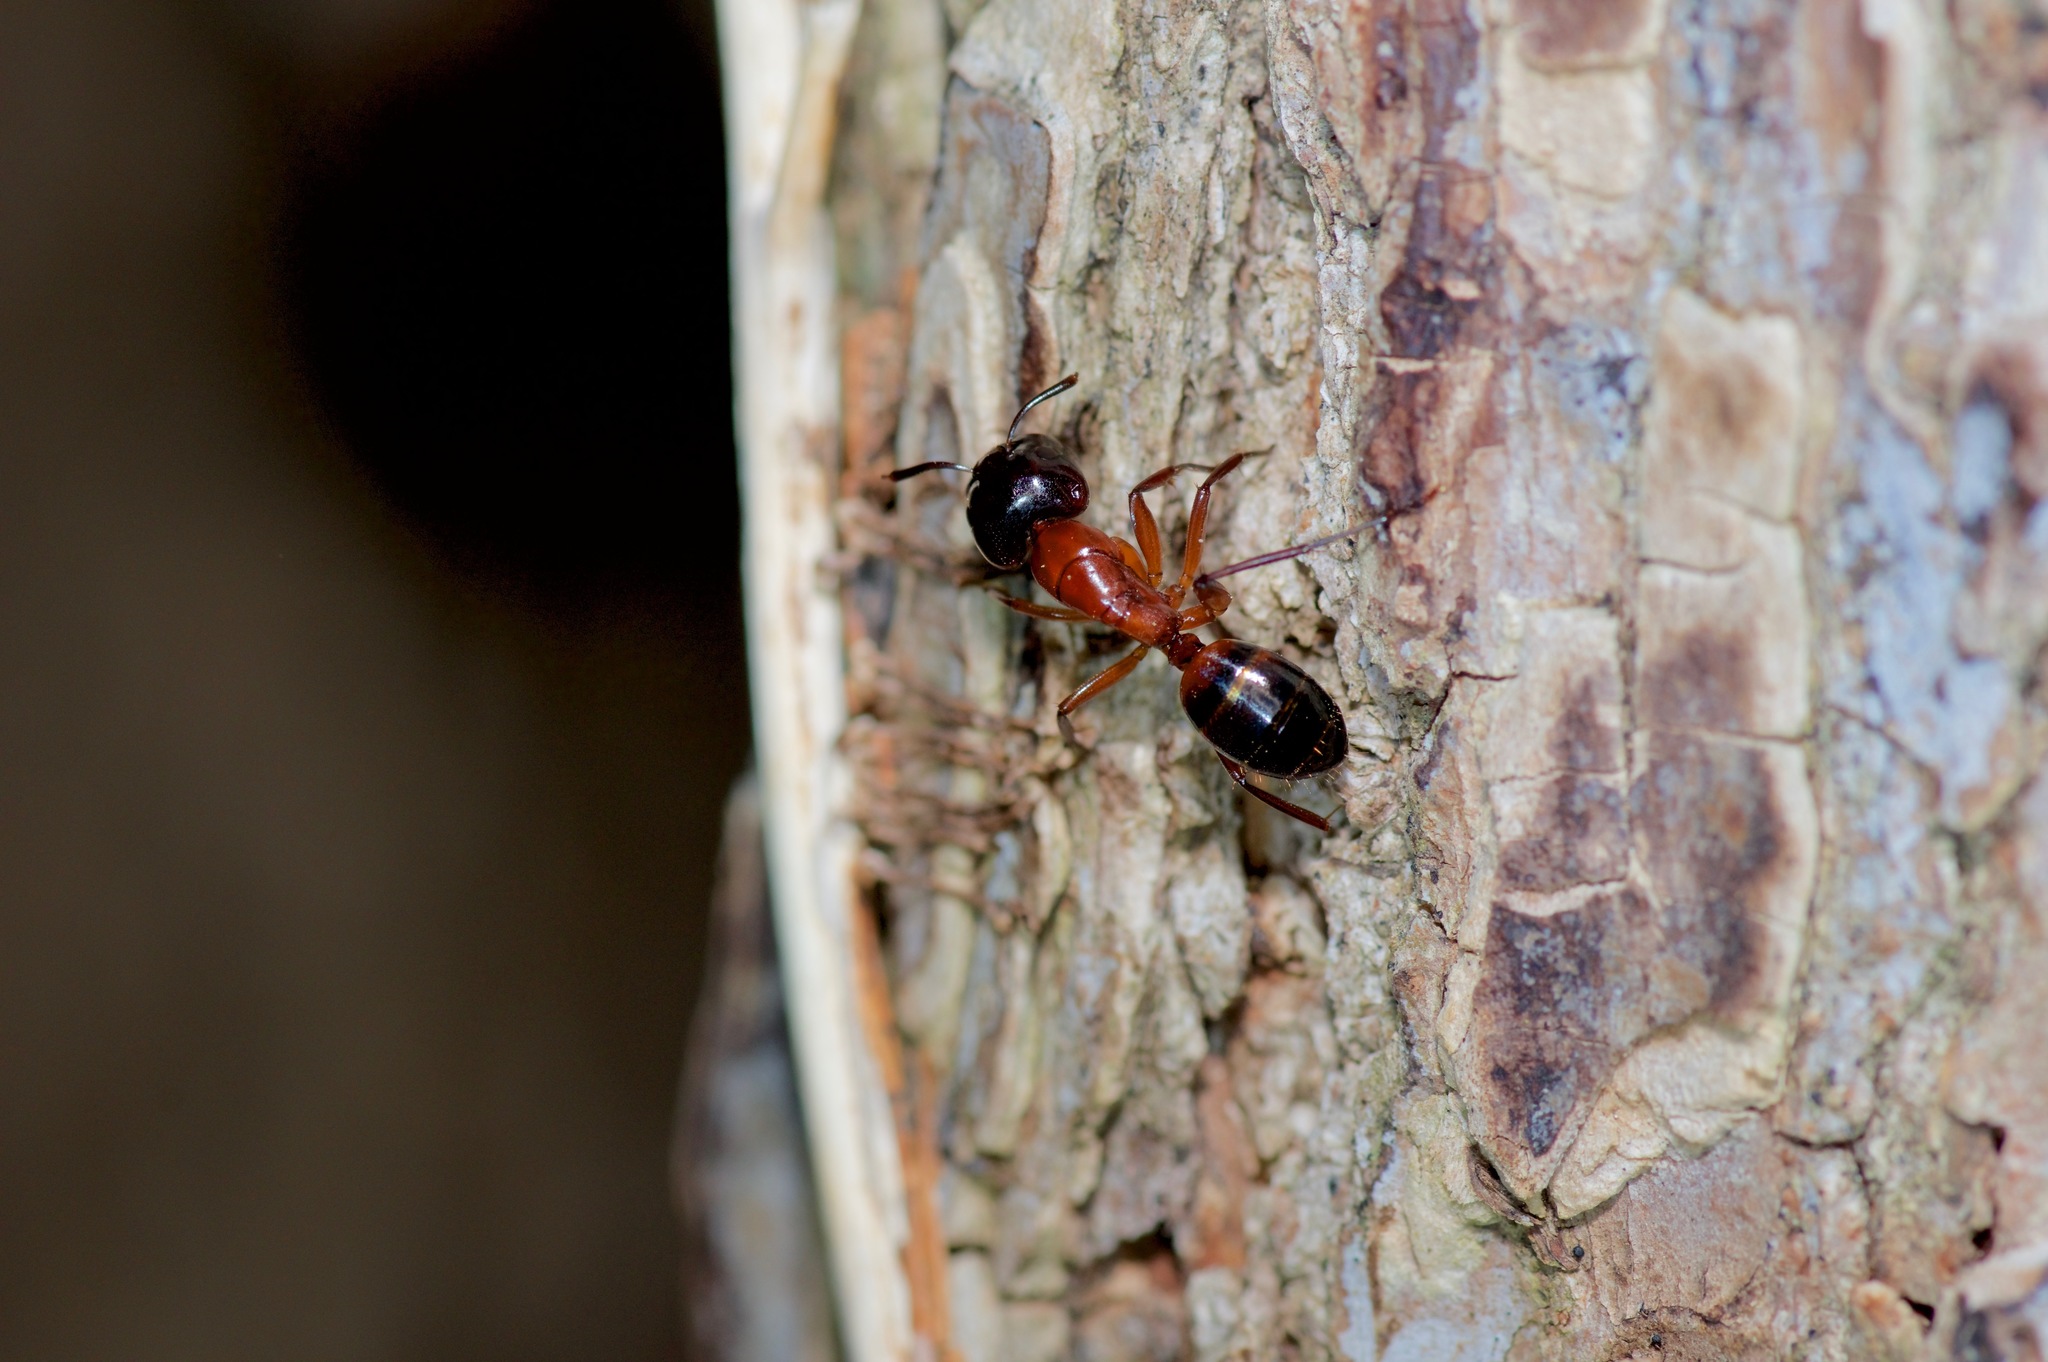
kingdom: Animalia
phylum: Arthropoda
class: Insecta
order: Hymenoptera
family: Formicidae
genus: Camponotus
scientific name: Camponotus texanus
